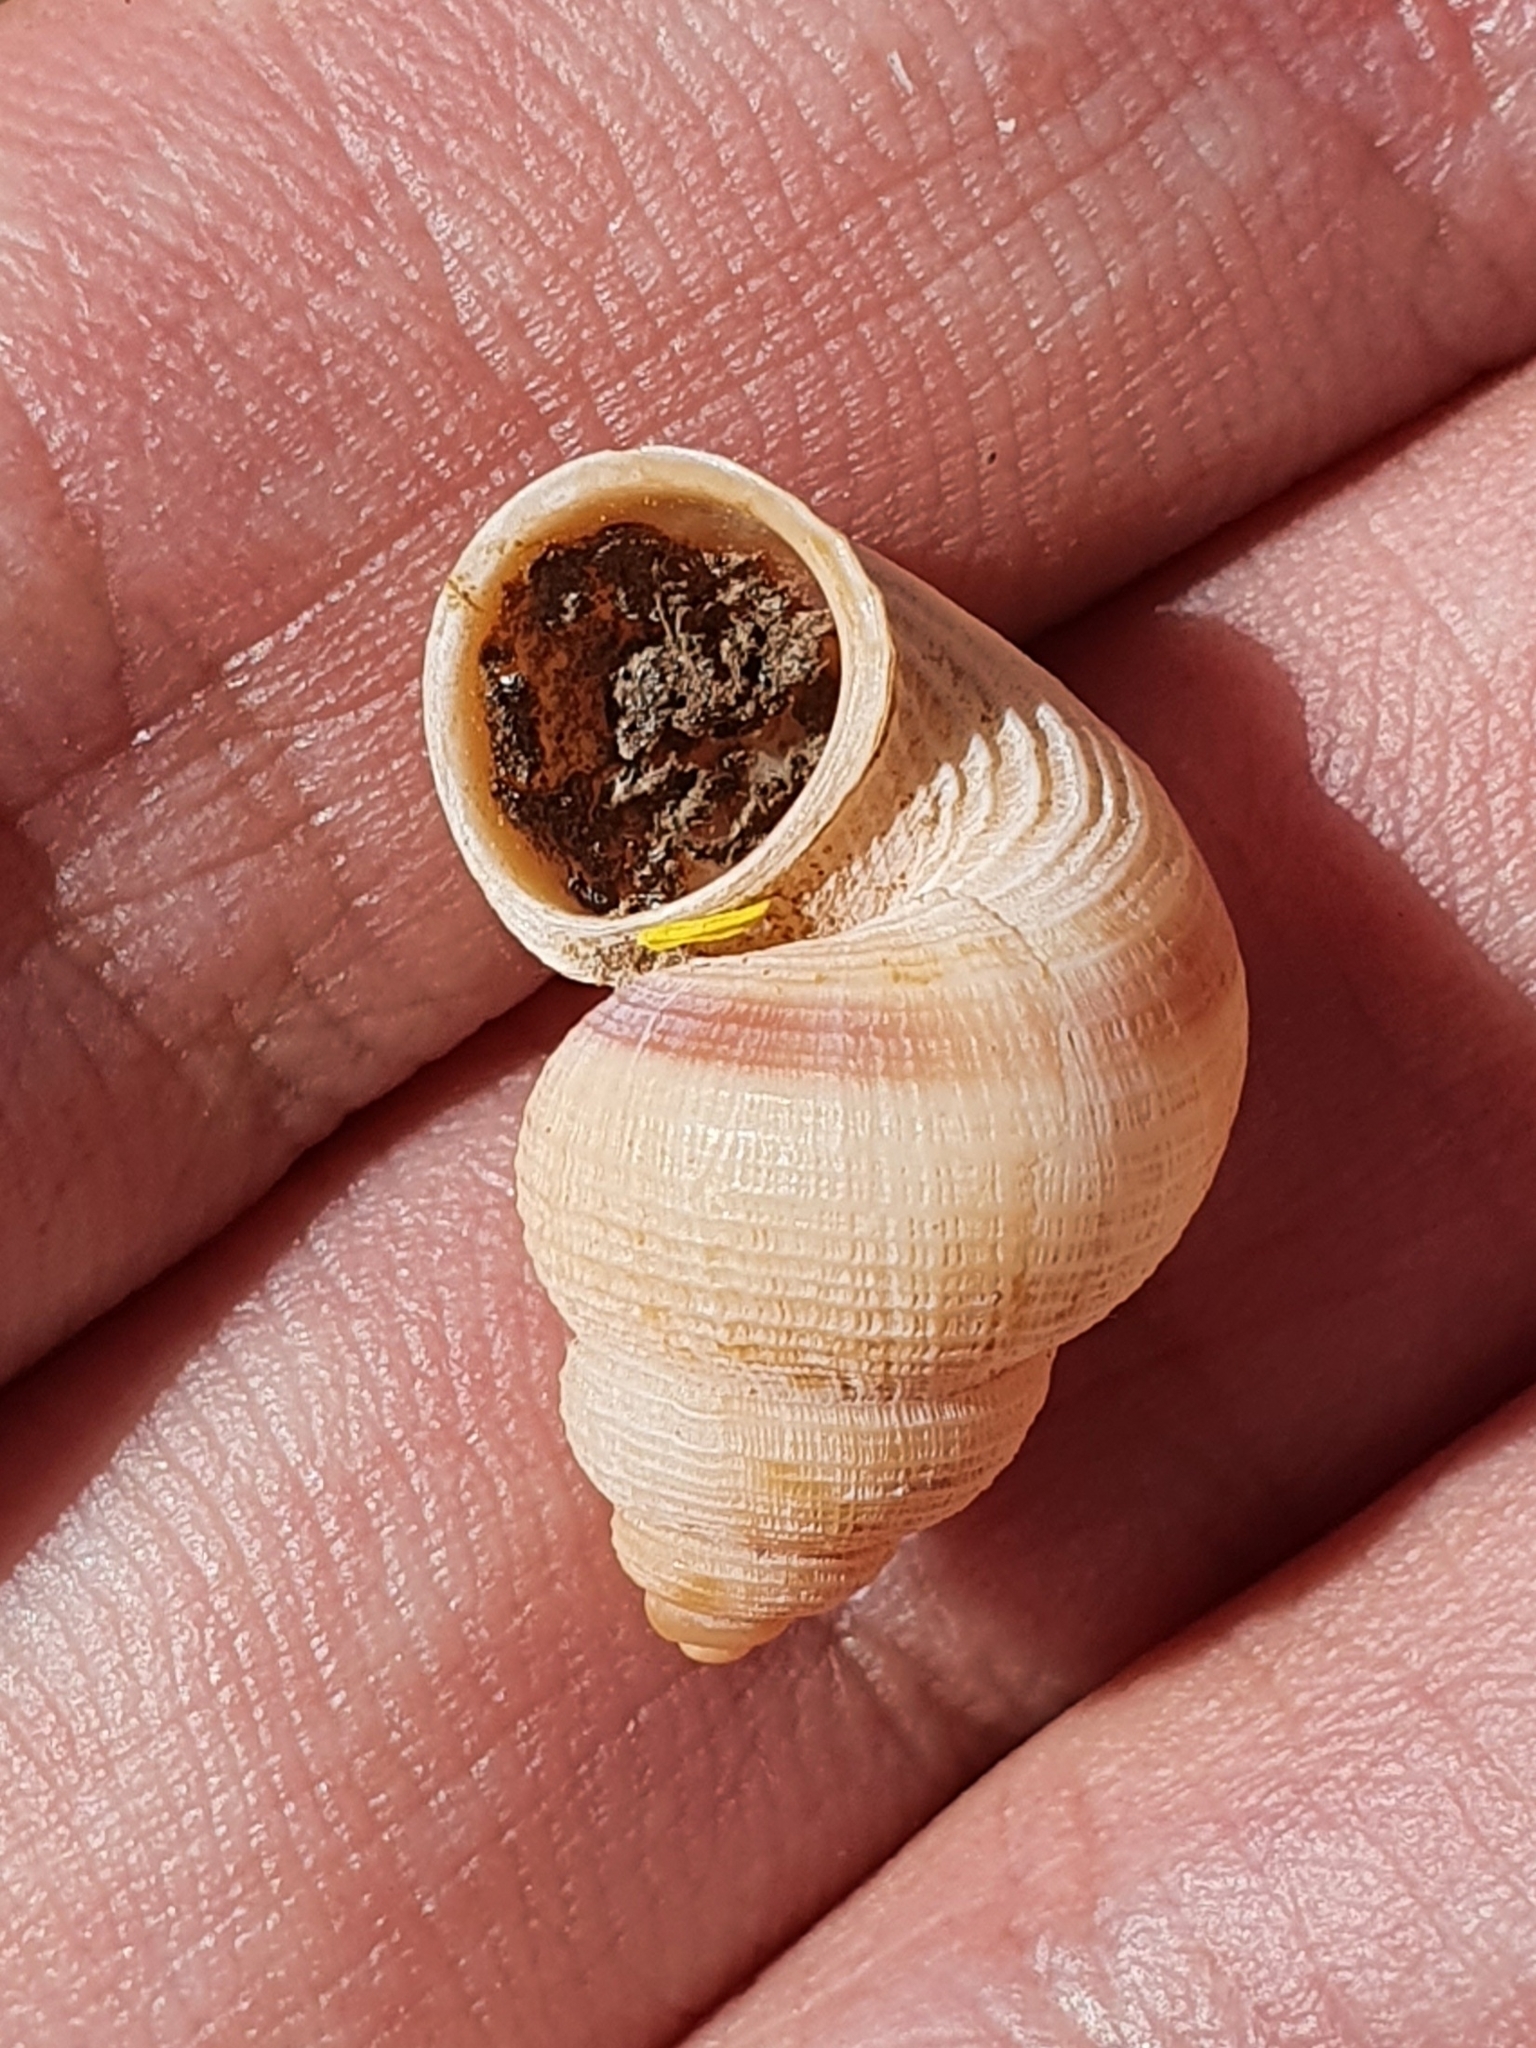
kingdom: Animalia
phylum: Mollusca
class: Gastropoda
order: Littorinimorpha
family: Pomatiidae
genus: Tudorella
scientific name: Tudorella sulcata
